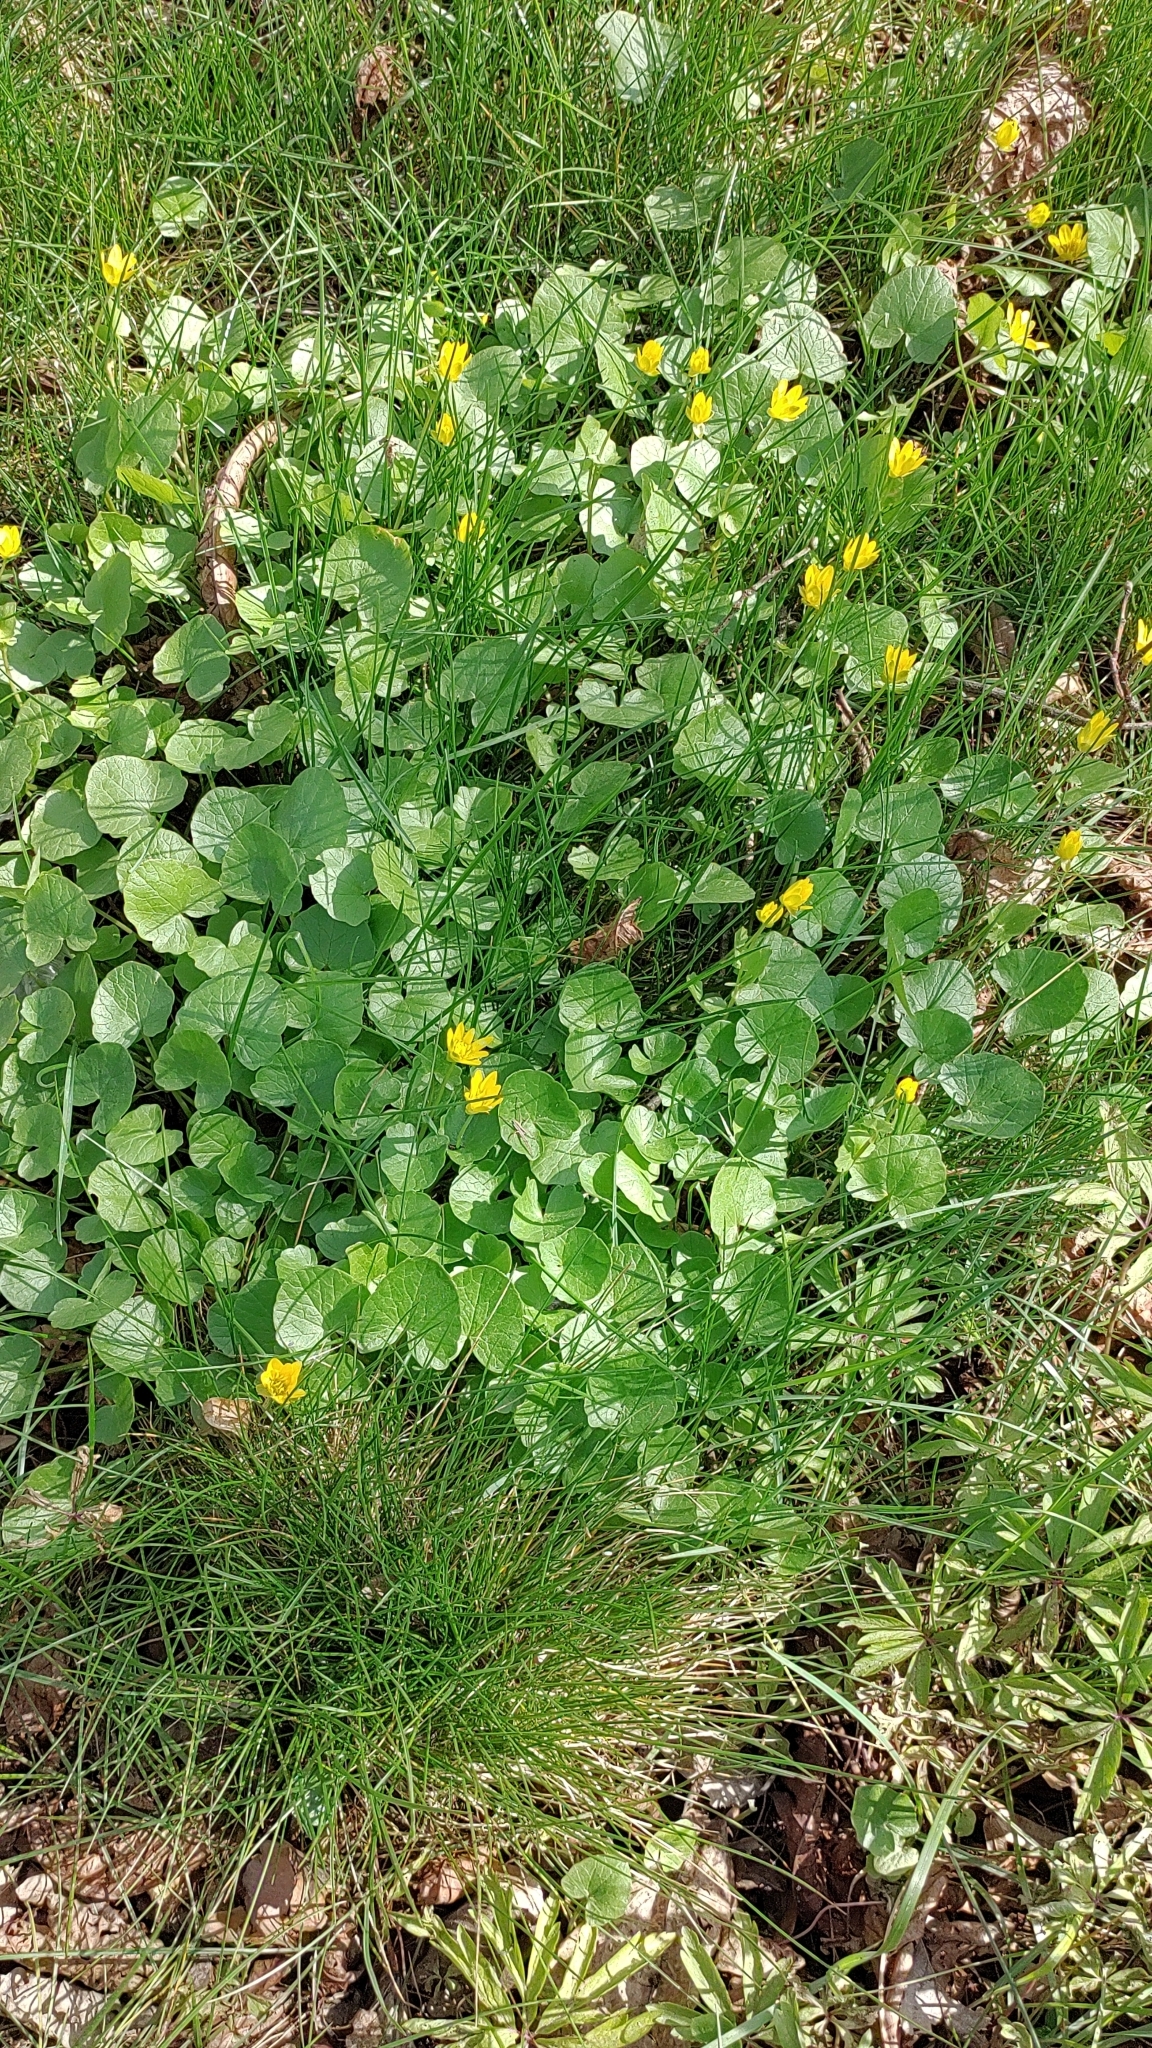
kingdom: Plantae
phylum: Tracheophyta
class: Magnoliopsida
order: Ranunculales
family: Ranunculaceae
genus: Ficaria
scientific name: Ficaria verna
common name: Lesser celandine
